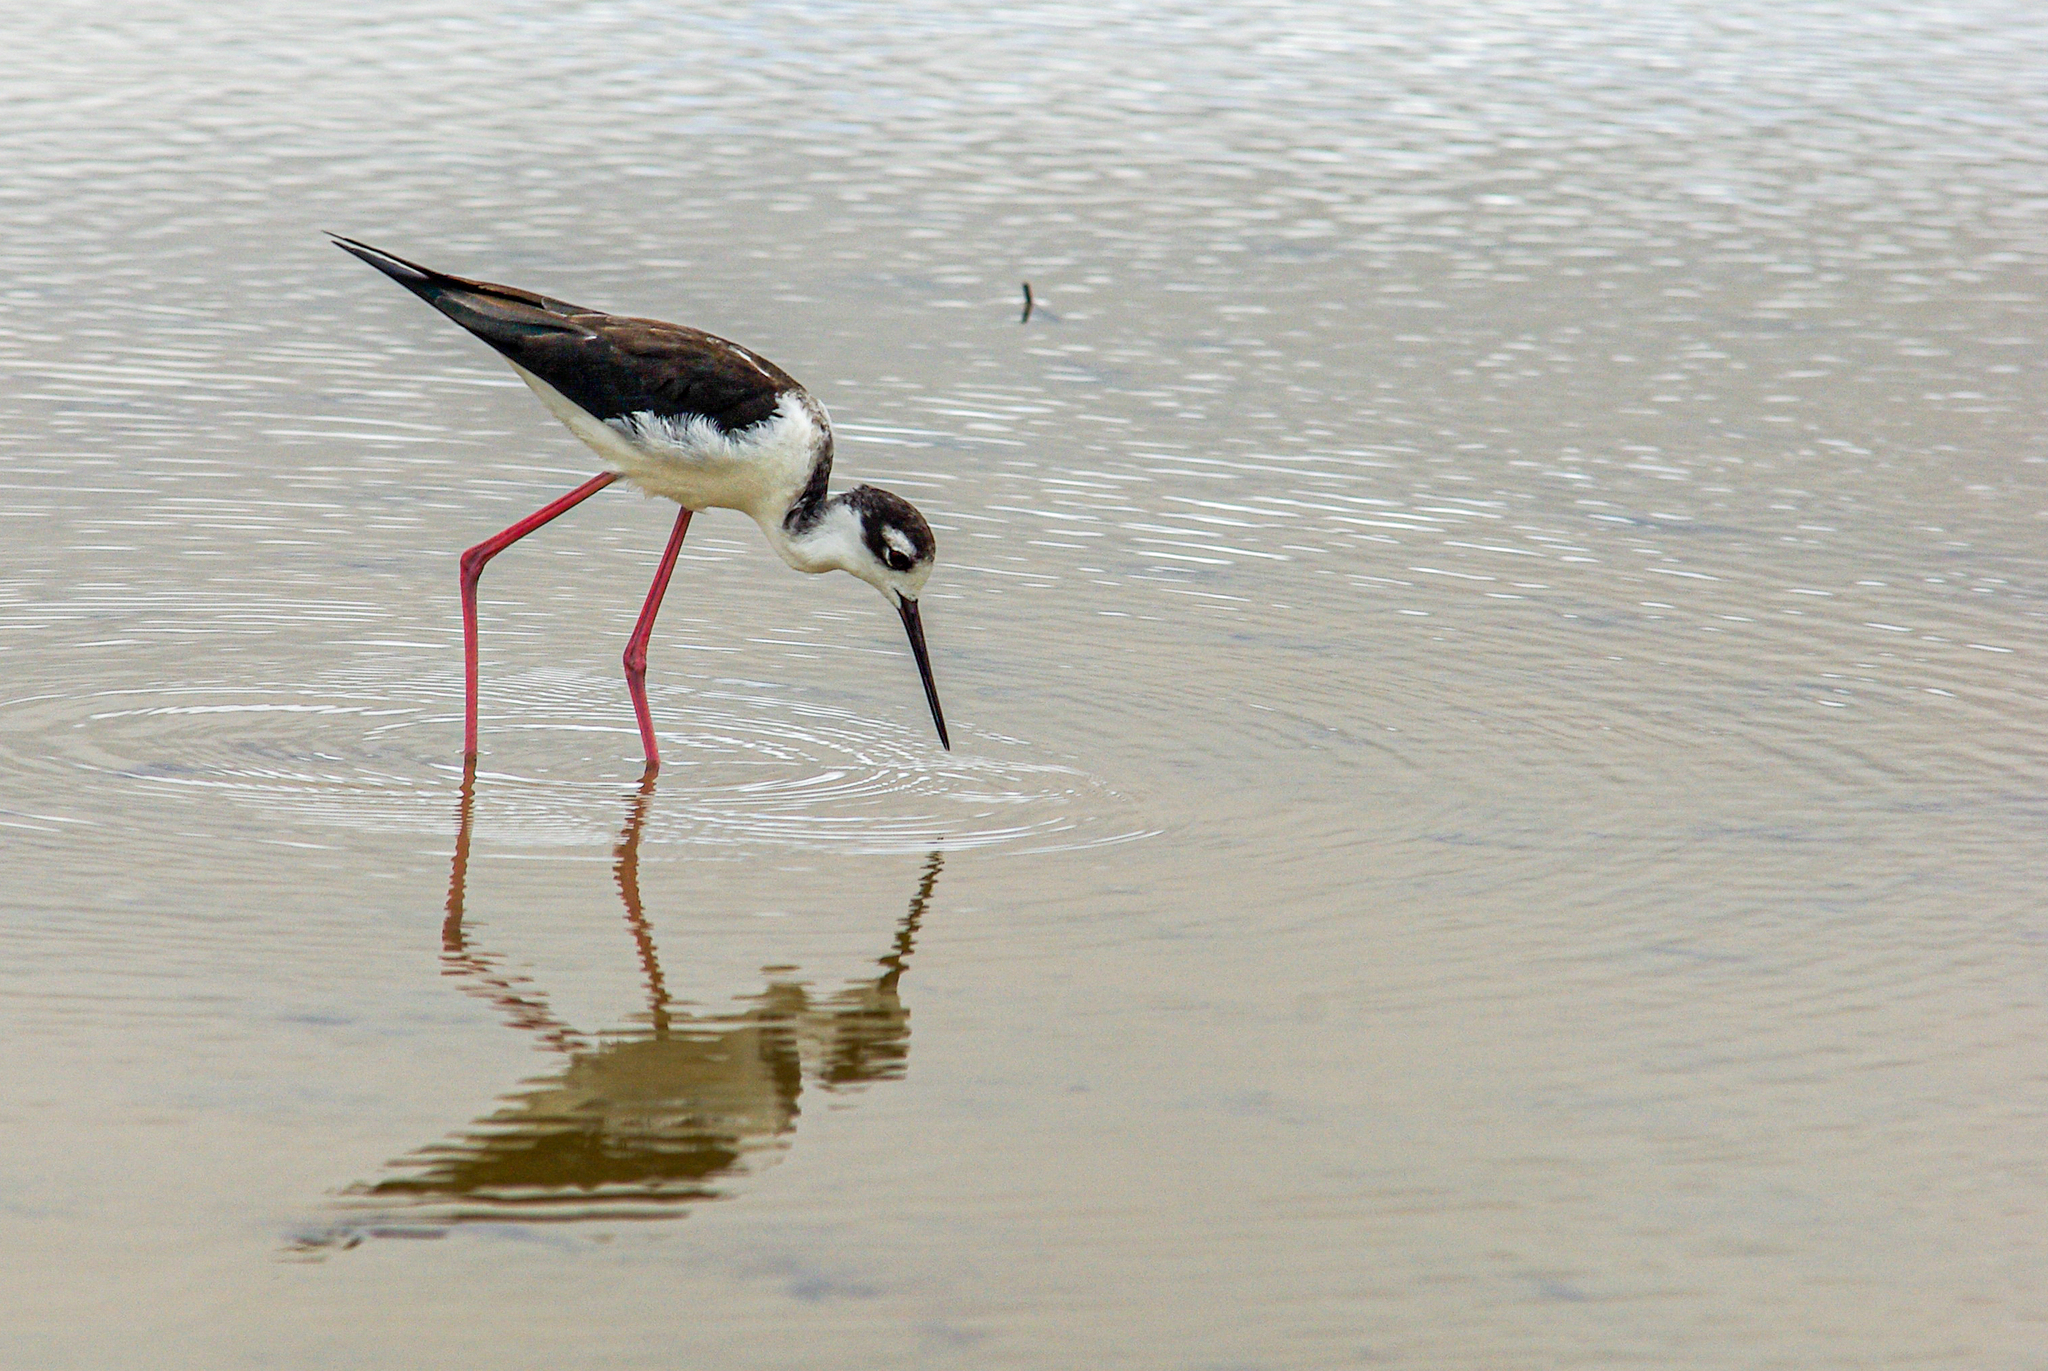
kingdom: Animalia
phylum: Chordata
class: Aves
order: Charadriiformes
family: Recurvirostridae
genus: Himantopus
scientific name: Himantopus mexicanus
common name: Black-necked stilt
